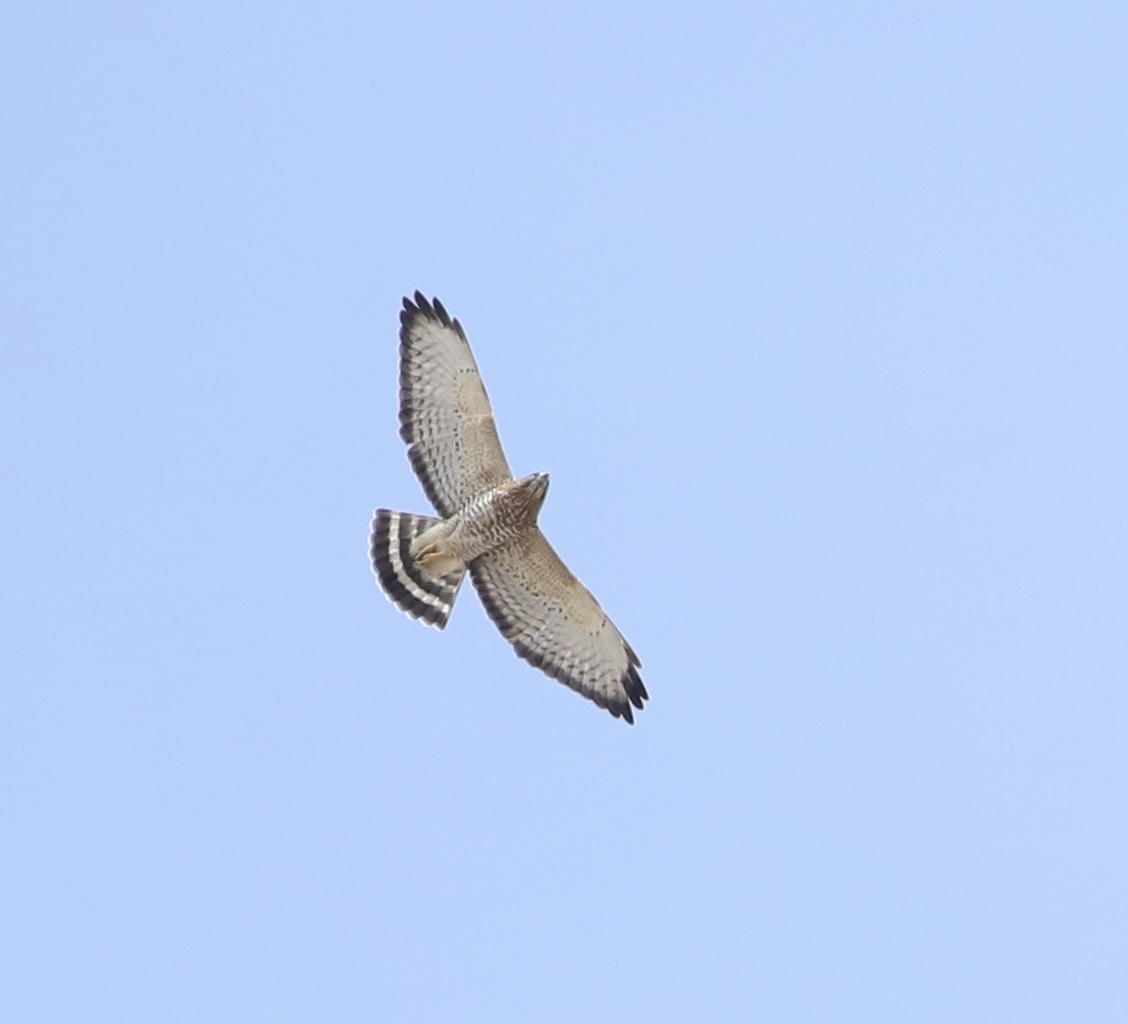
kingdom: Animalia
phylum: Chordata
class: Aves
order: Accipitriformes
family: Accipitridae
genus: Buteo
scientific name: Buteo platypterus
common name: Broad-winged hawk
